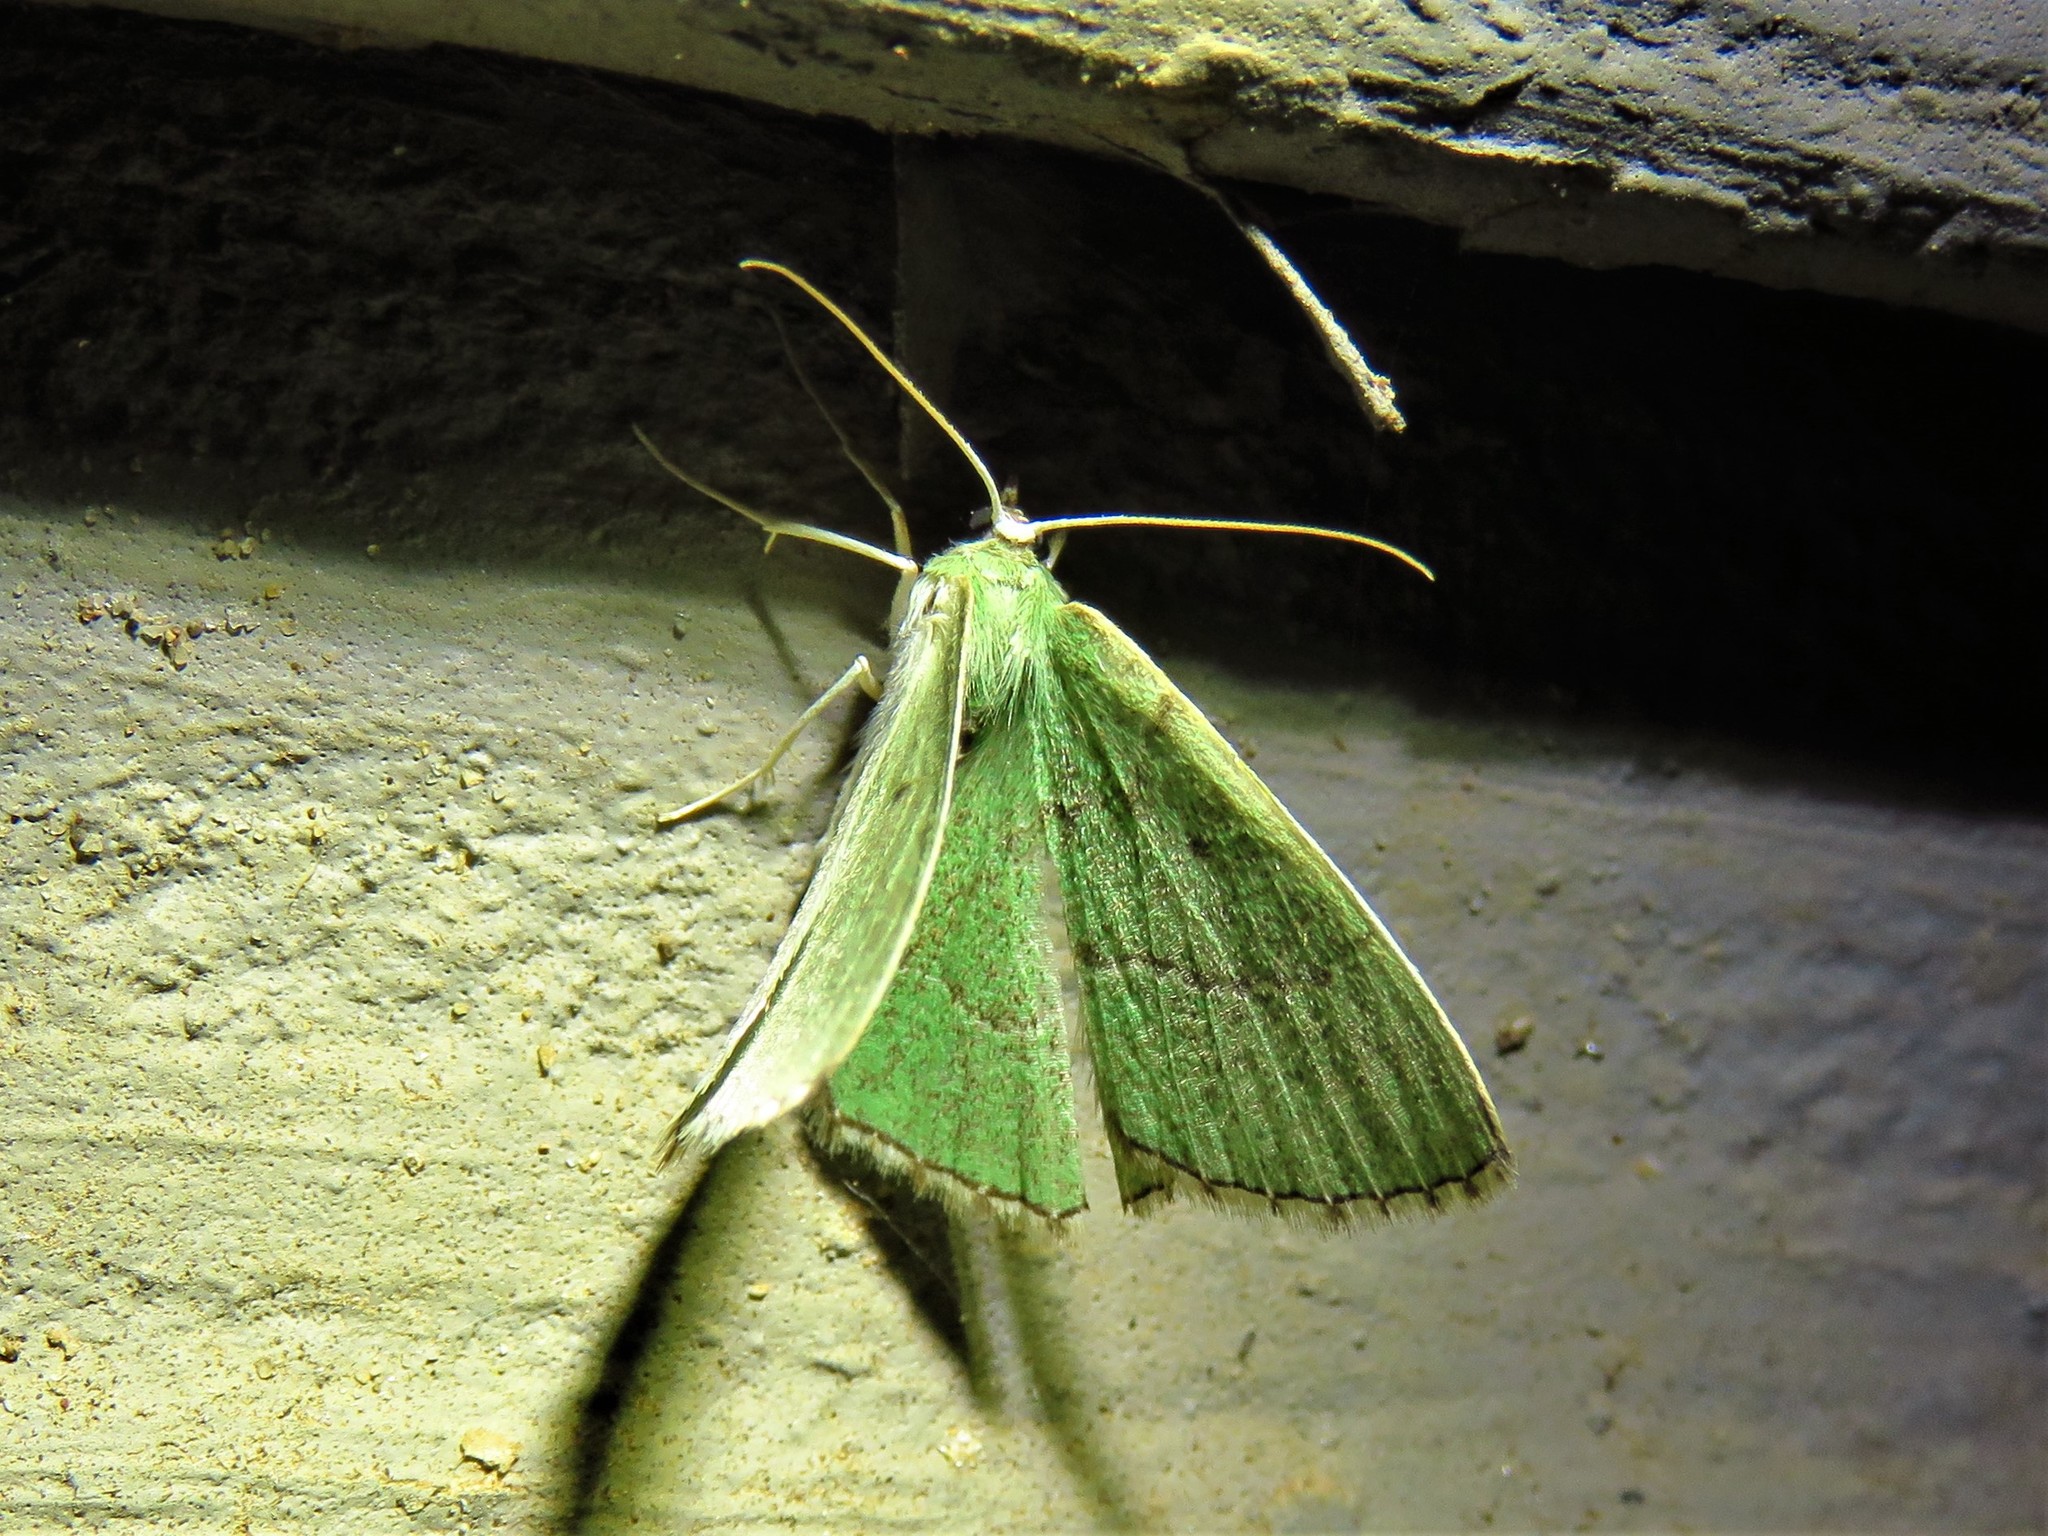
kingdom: Animalia
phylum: Arthropoda
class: Insecta
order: Lepidoptera
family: Geometridae
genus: Nemoria
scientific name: Nemoria lixaria
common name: Red-bordered emerald
